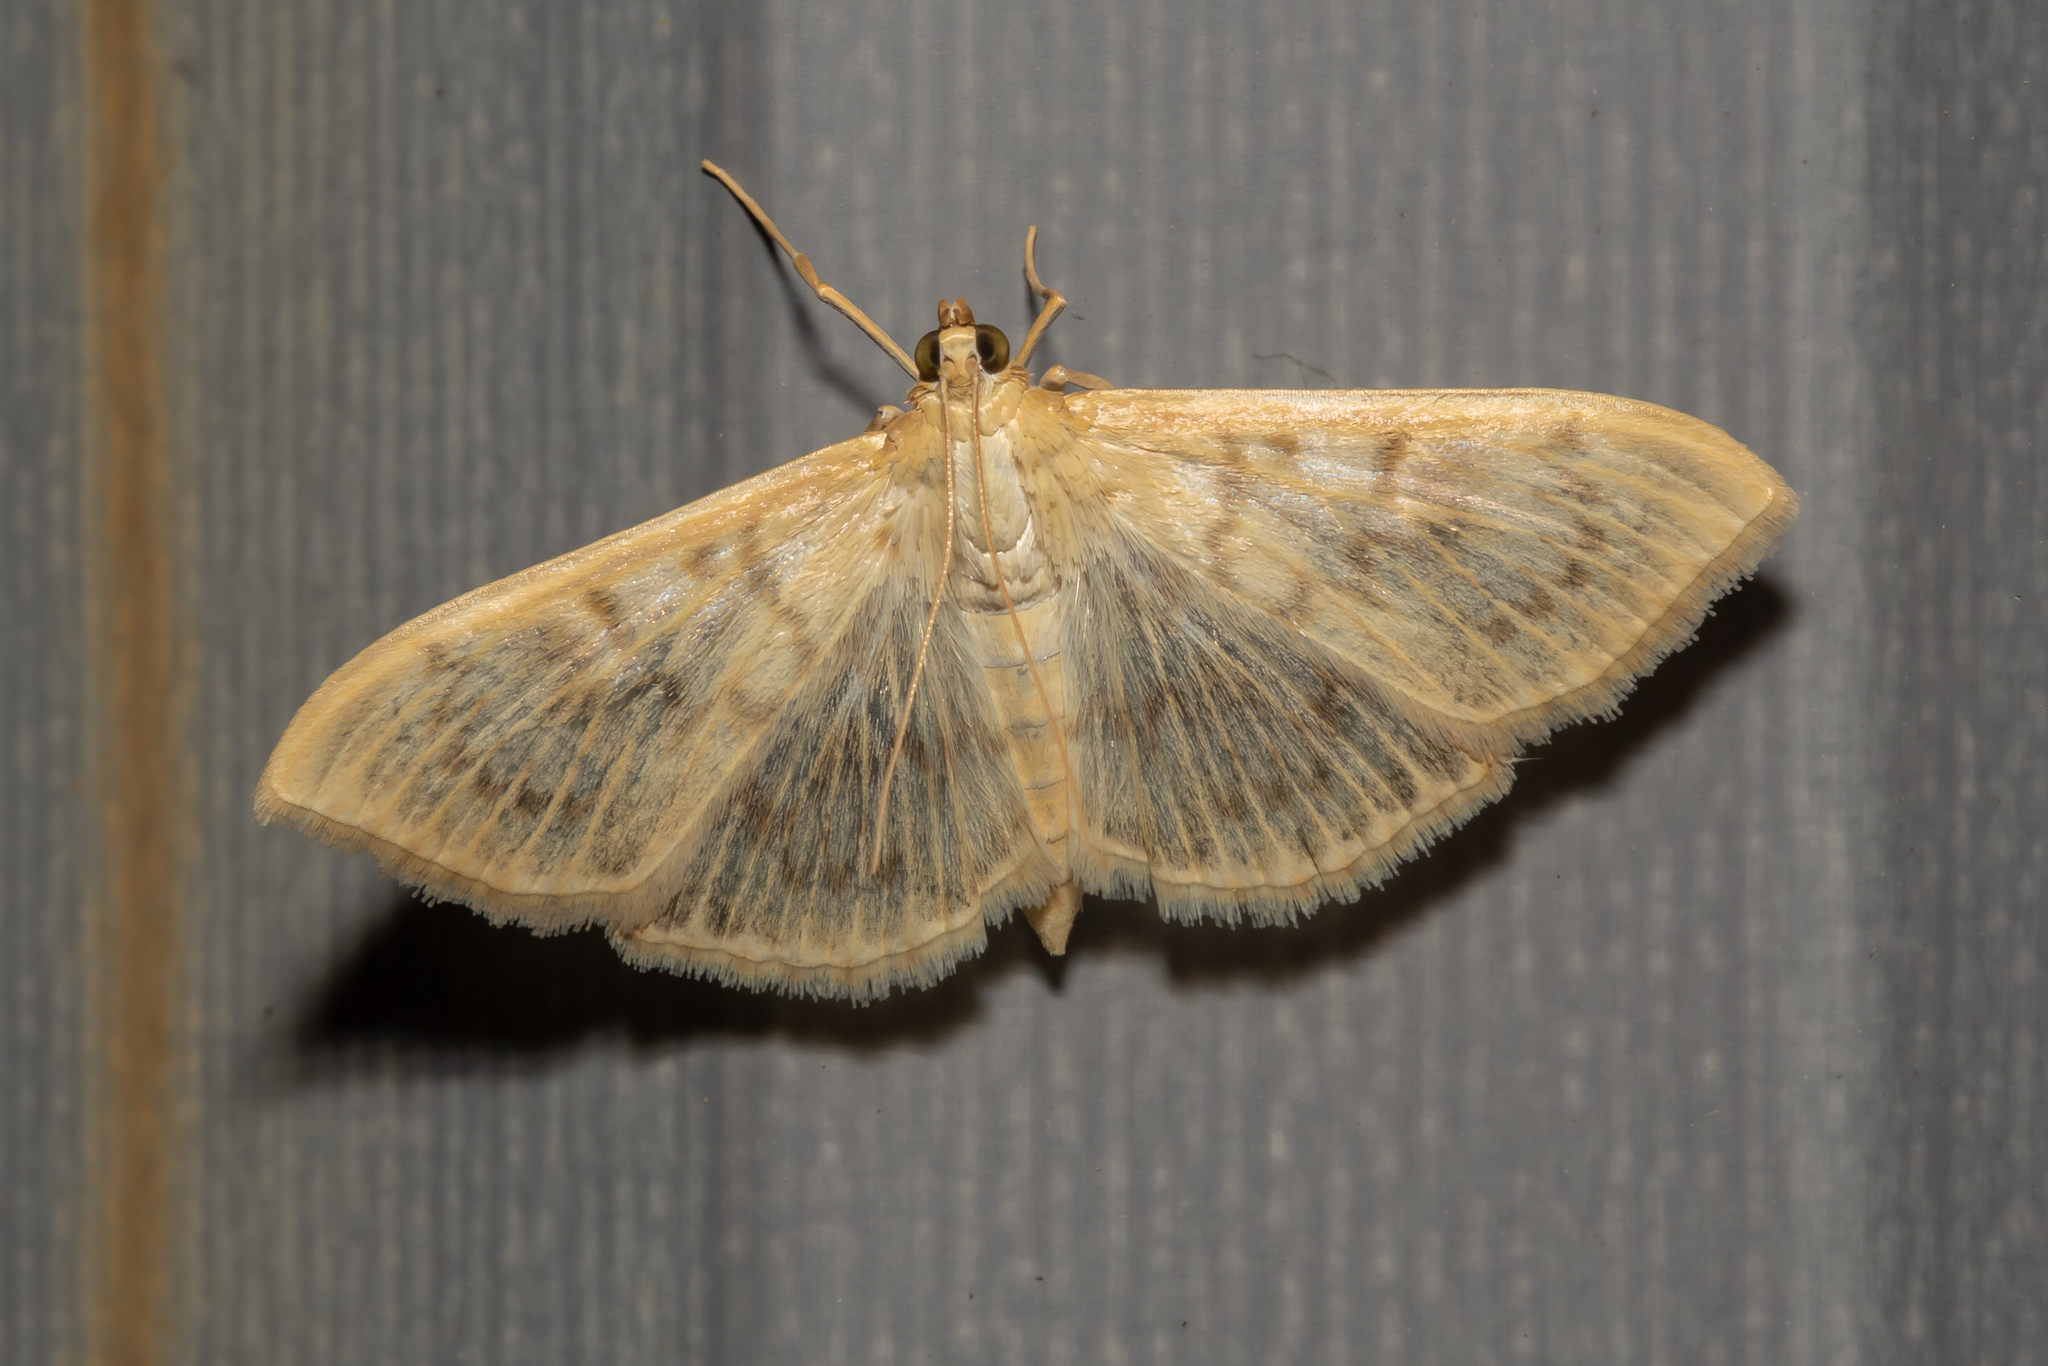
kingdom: Animalia
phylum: Arthropoda
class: Insecta
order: Lepidoptera
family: Crambidae
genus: Patania
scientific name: Patania ruralis
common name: Mother of pearl
